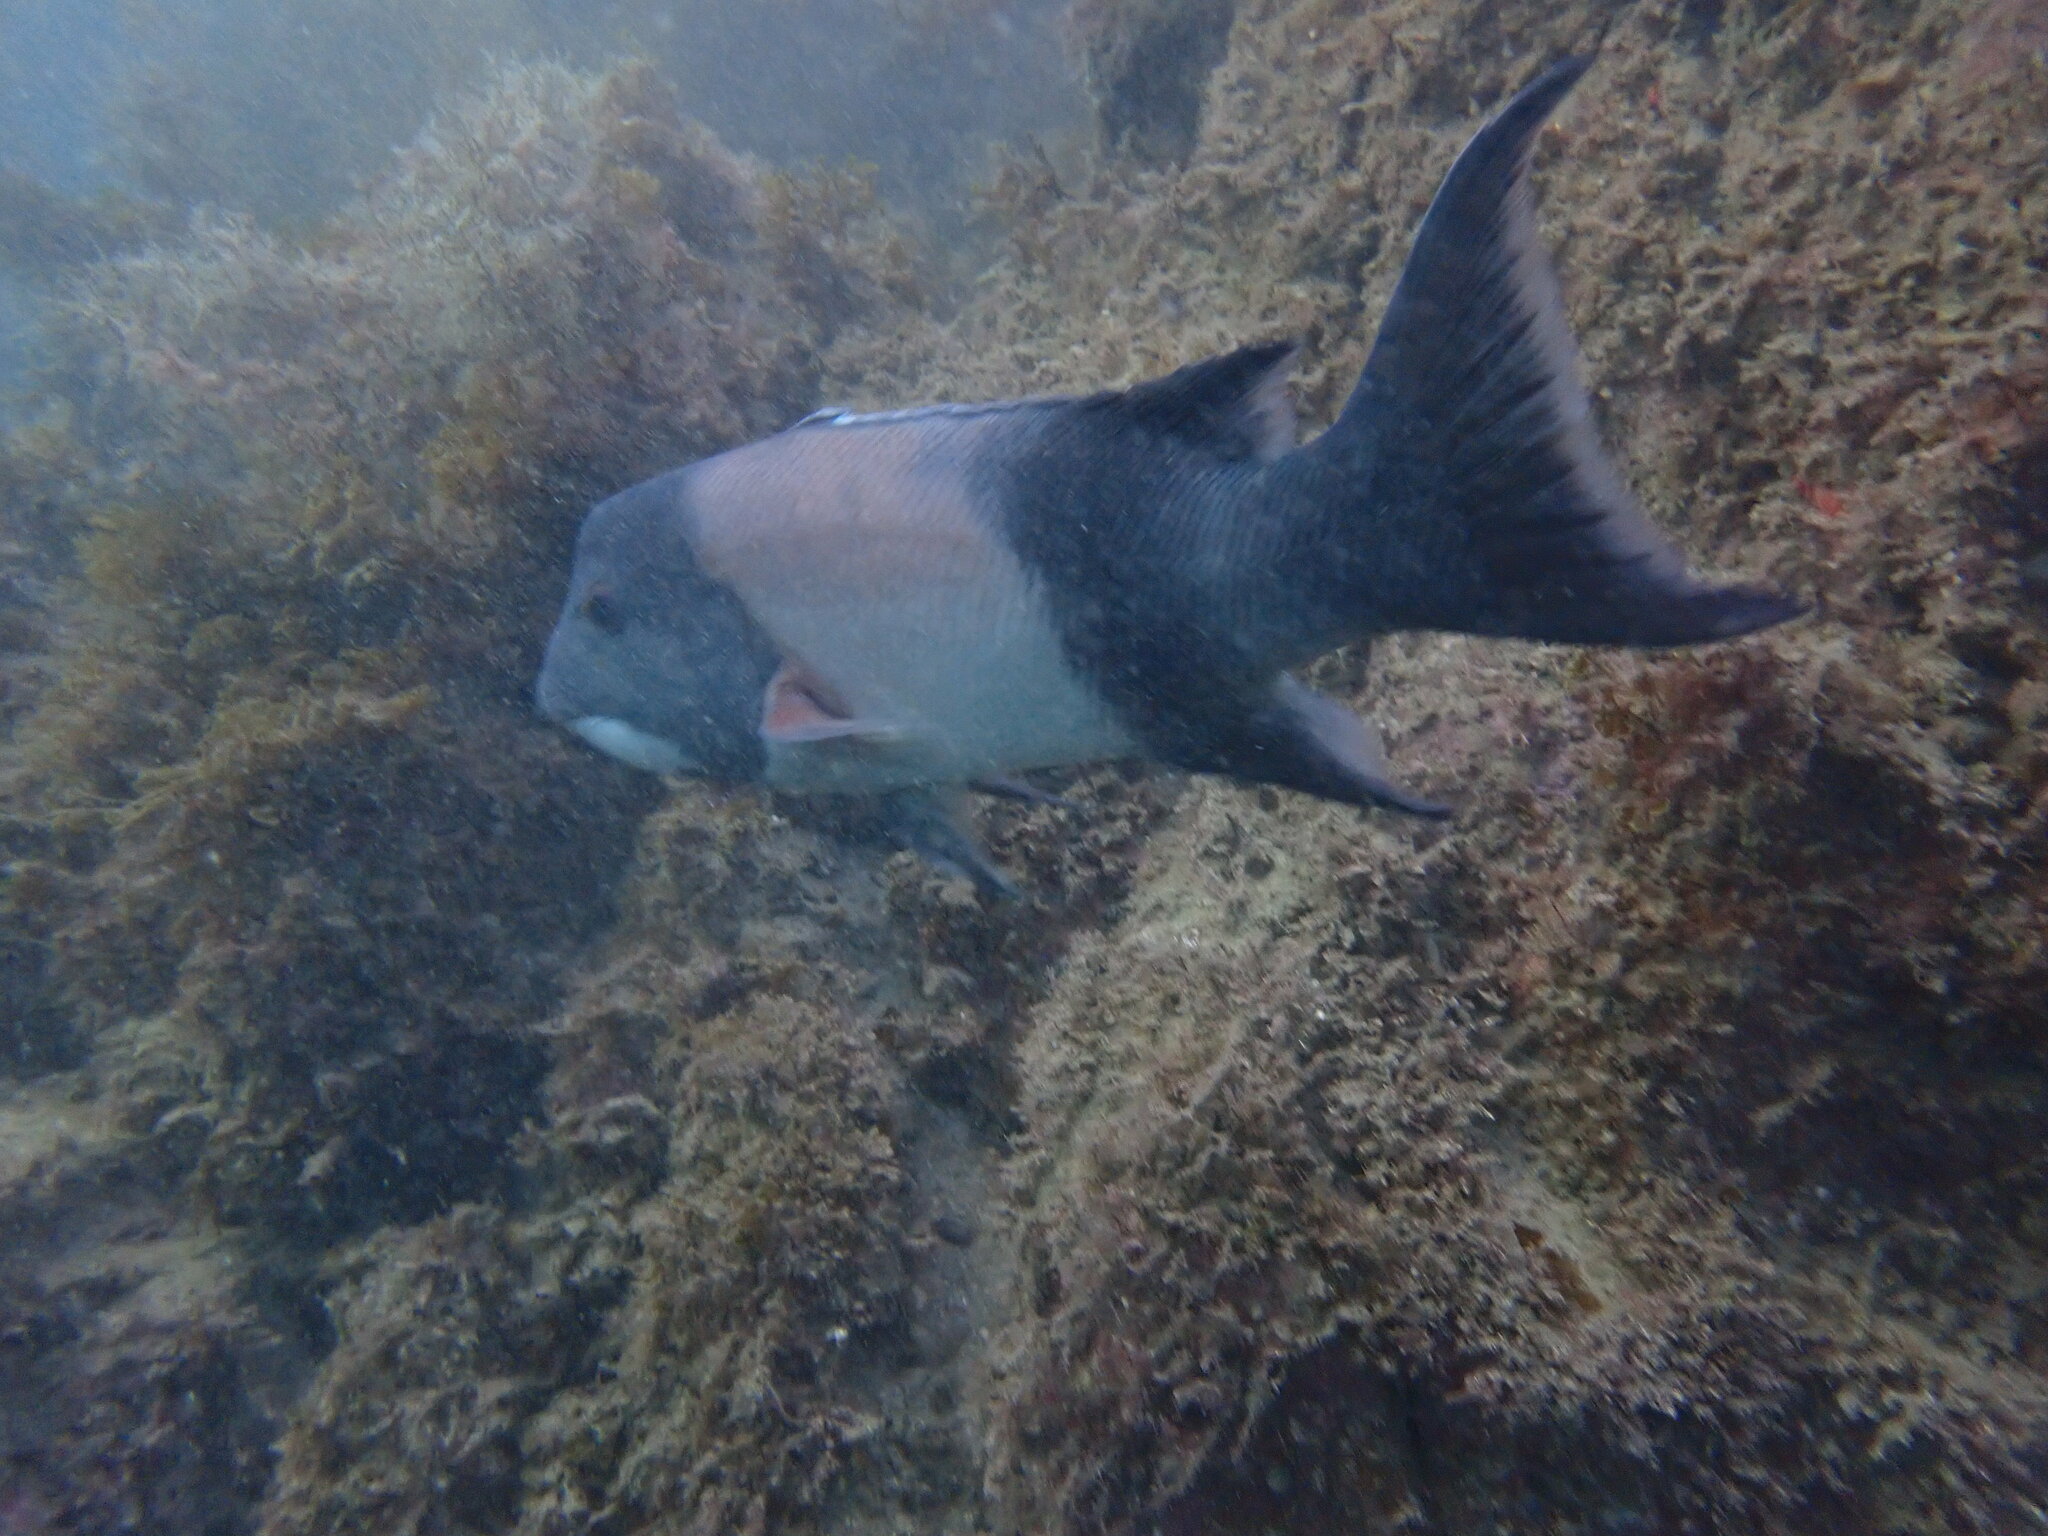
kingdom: Animalia
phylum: Chordata
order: Perciformes
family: Labridae
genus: Semicossyphus
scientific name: Semicossyphus pulcher
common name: California sheephead
